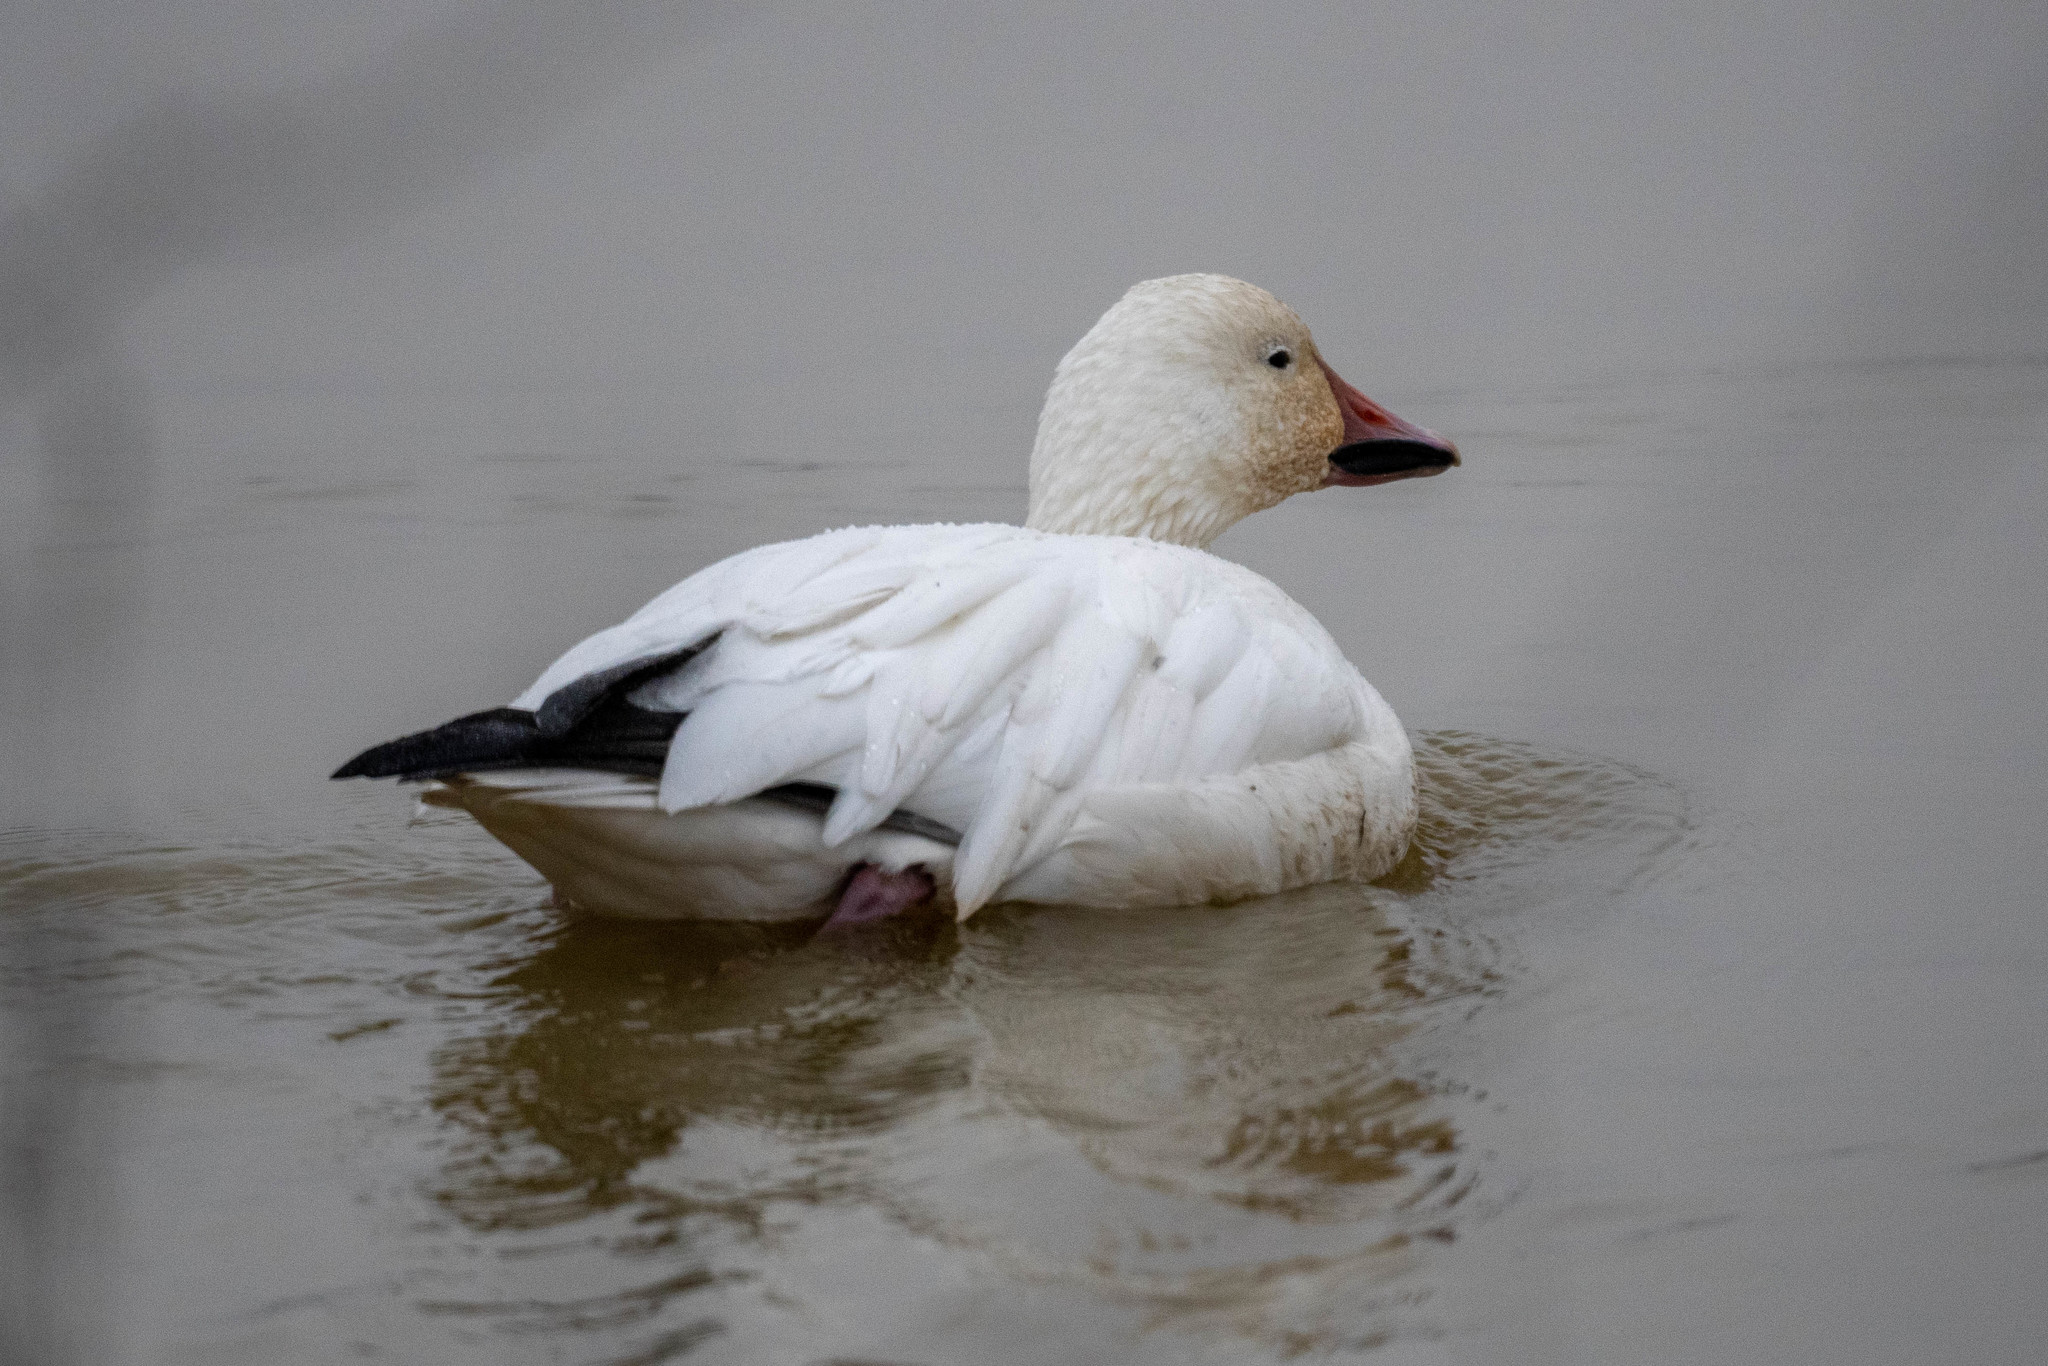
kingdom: Animalia
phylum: Chordata
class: Aves
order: Anseriformes
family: Anatidae
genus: Anser
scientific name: Anser caerulescens
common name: Snow goose
